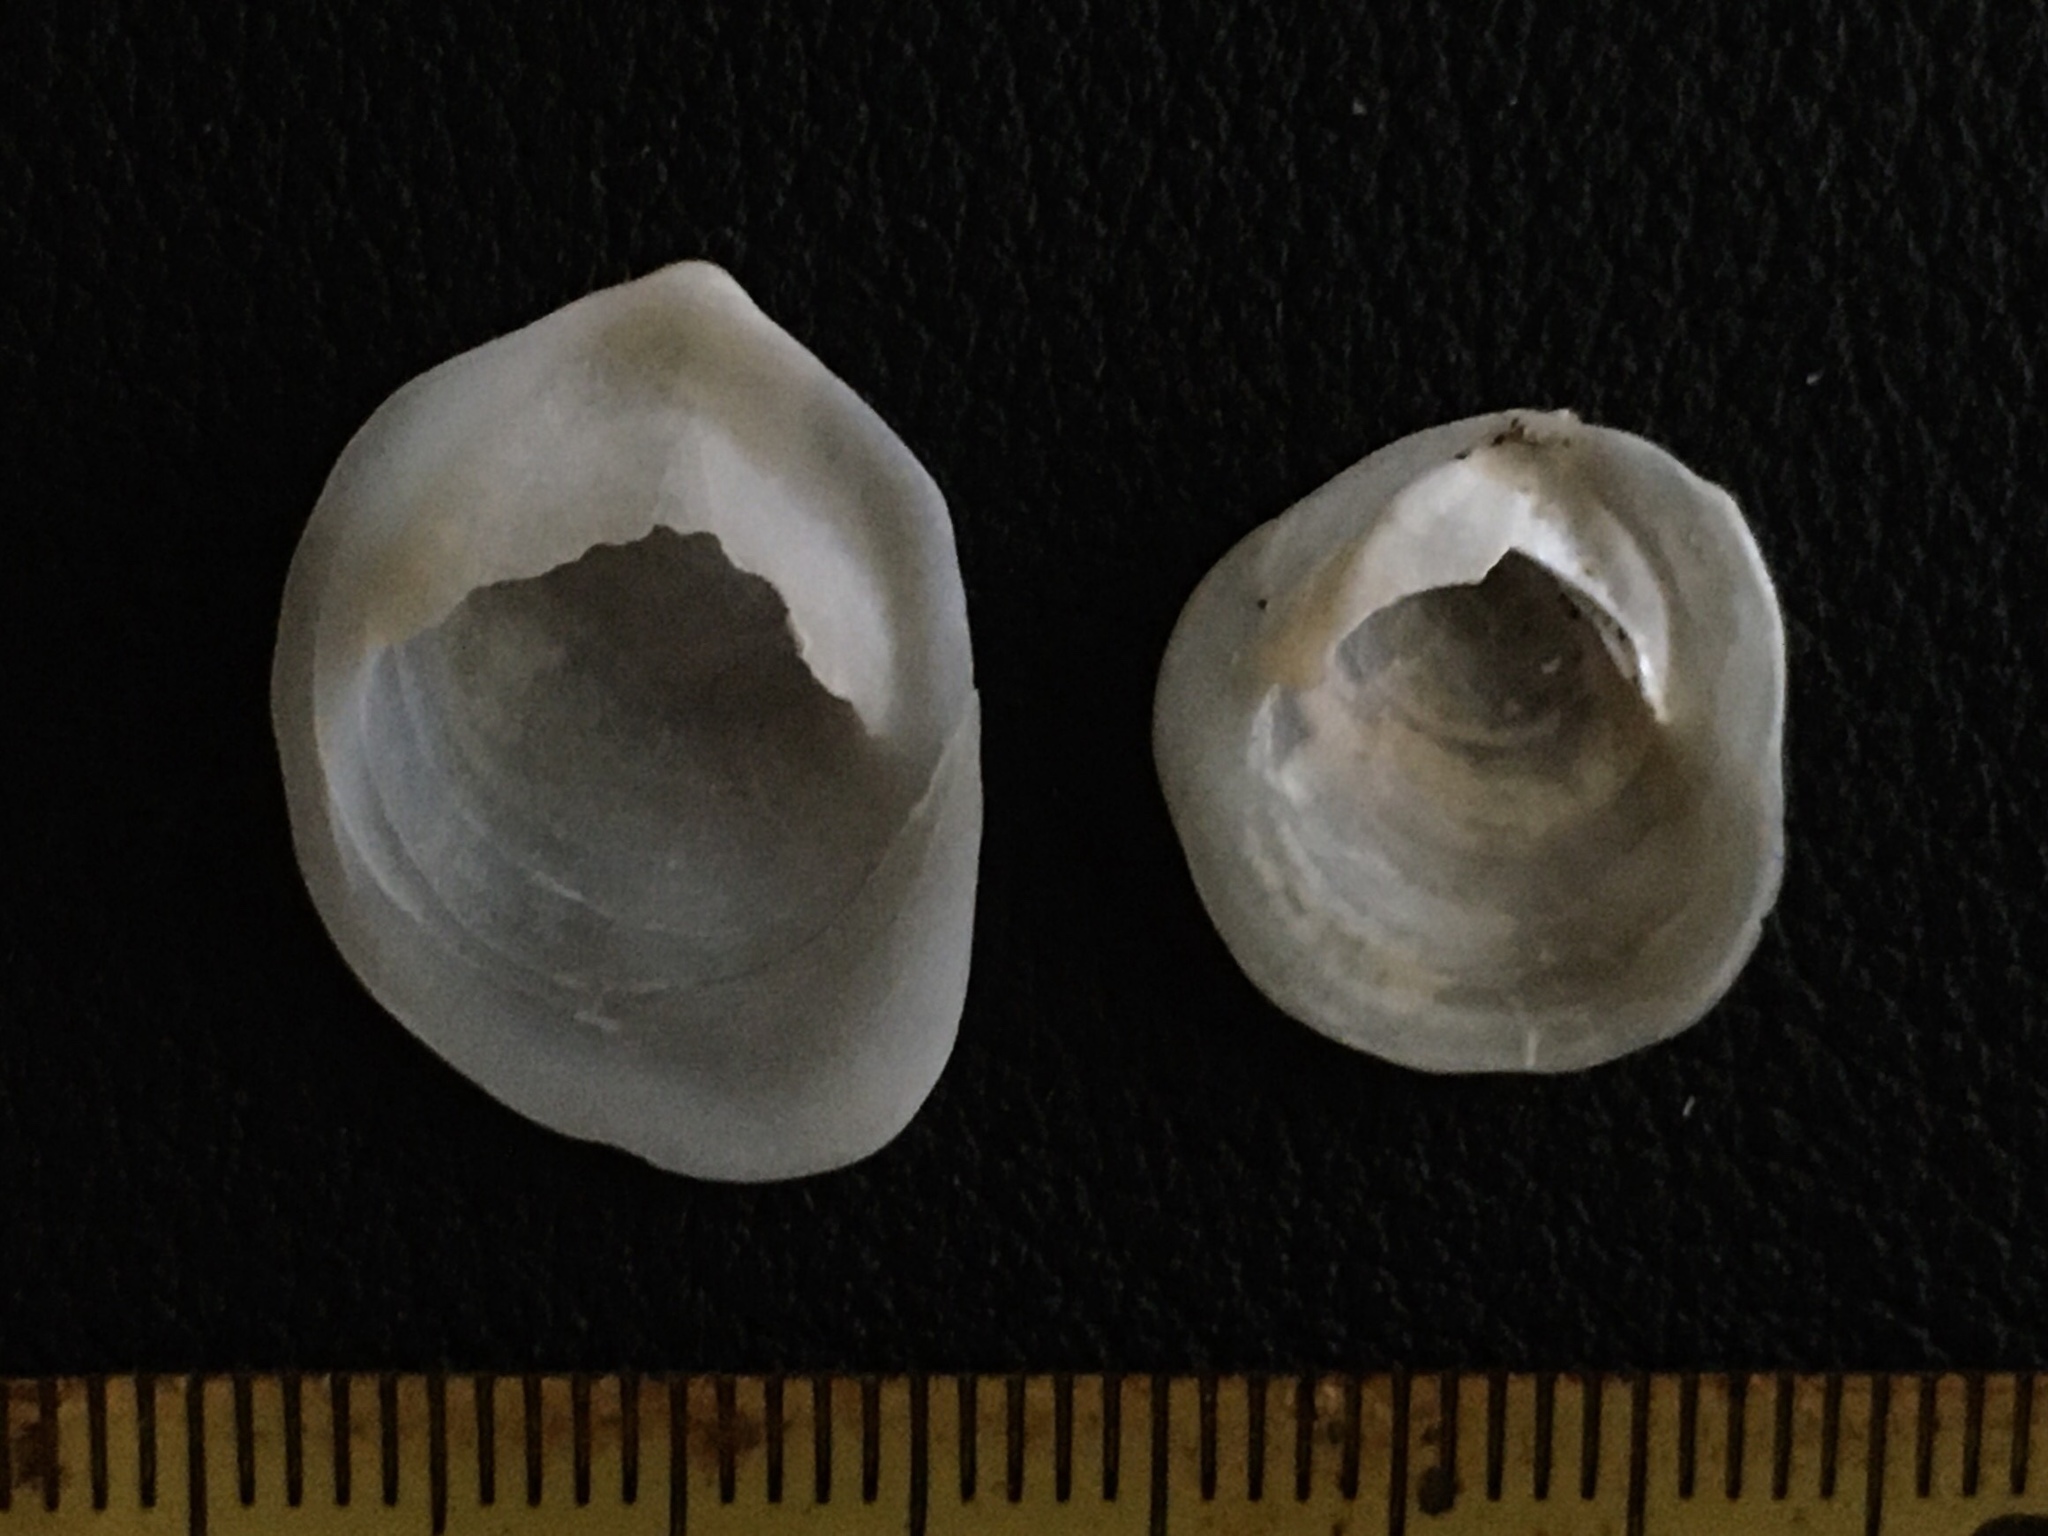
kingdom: Animalia
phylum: Mollusca
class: Gastropoda
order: Littorinimorpha
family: Calyptraeidae
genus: Crepidula
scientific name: Crepidula intratesta
